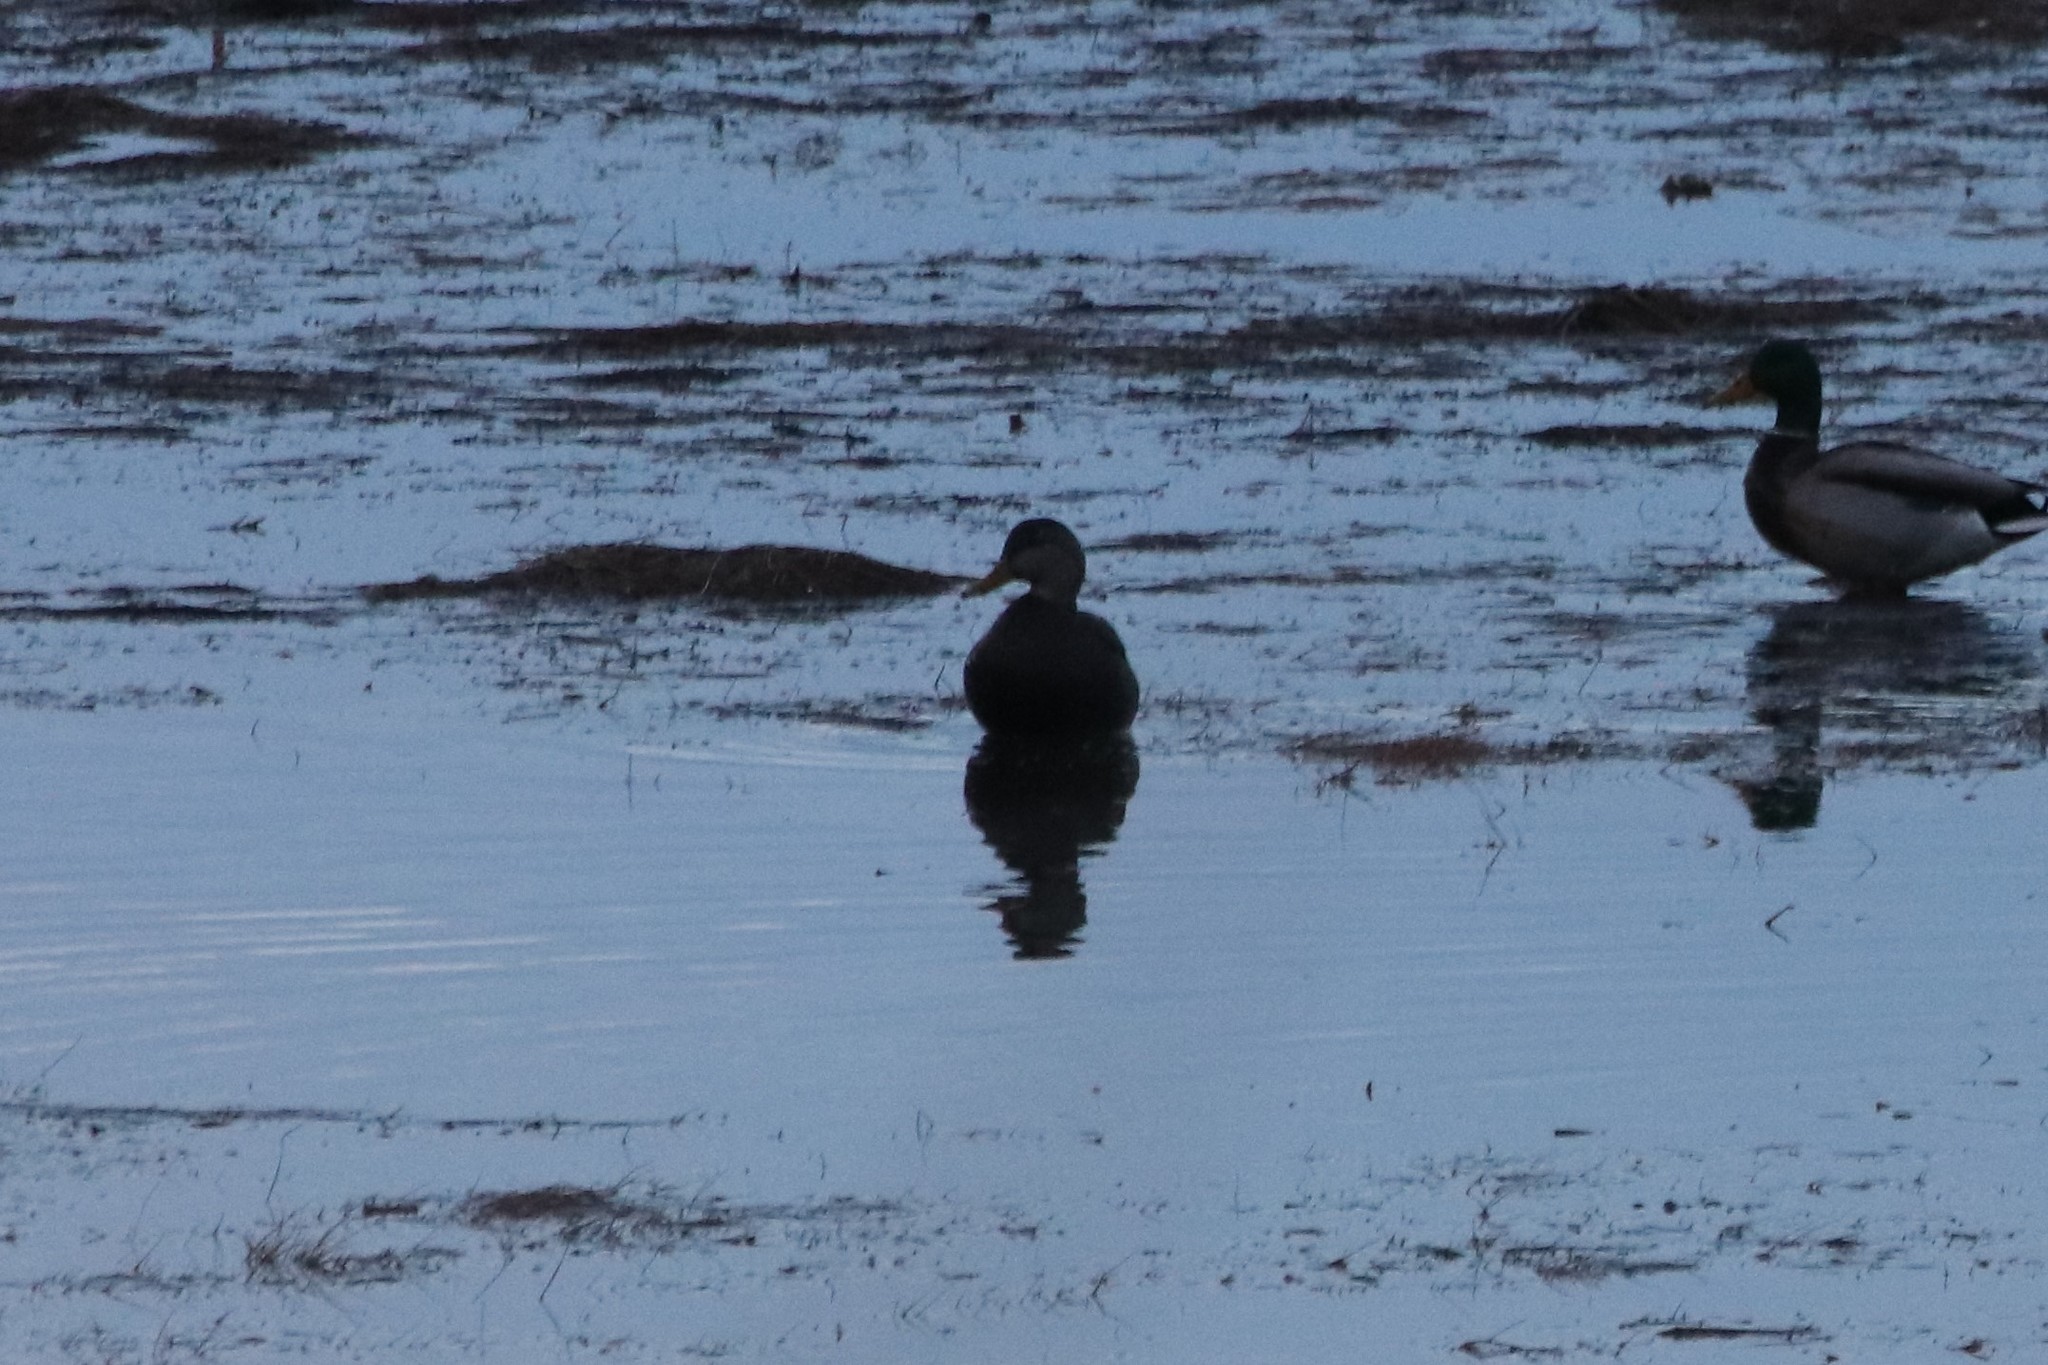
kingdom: Animalia
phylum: Chordata
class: Aves
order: Anseriformes
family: Anatidae
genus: Anas
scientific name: Anas rubripes
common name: American black duck
